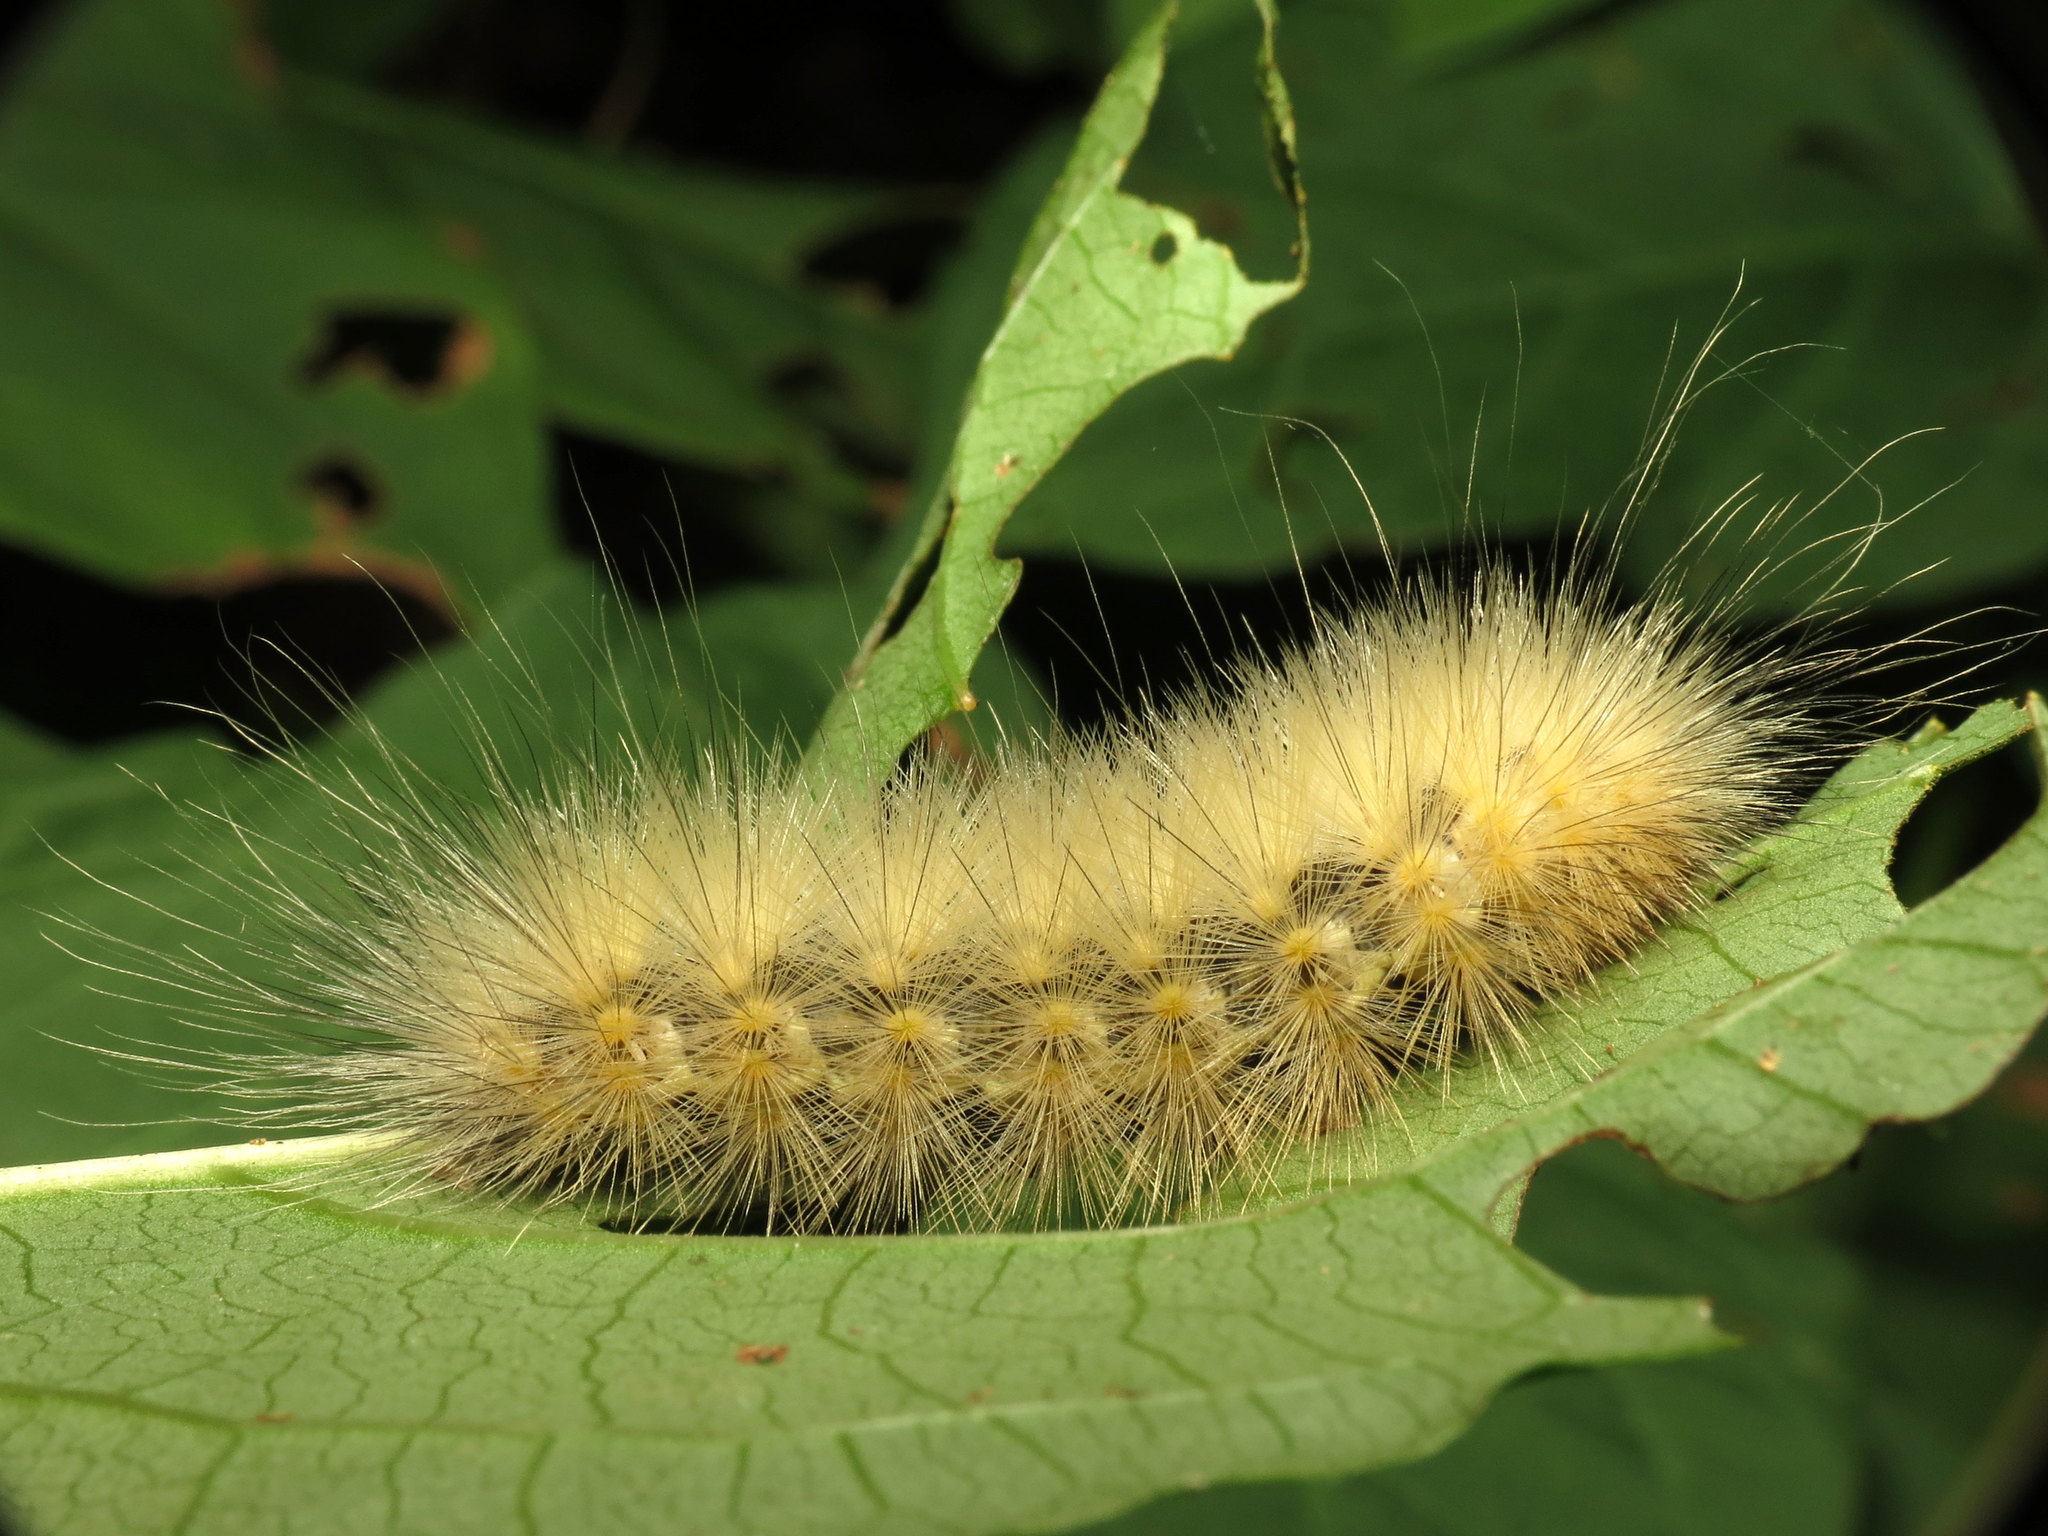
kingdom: Animalia
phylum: Arthropoda
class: Insecta
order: Lepidoptera
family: Erebidae
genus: Spilosoma
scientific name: Spilosoma virginica
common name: Virginia tiger moth
